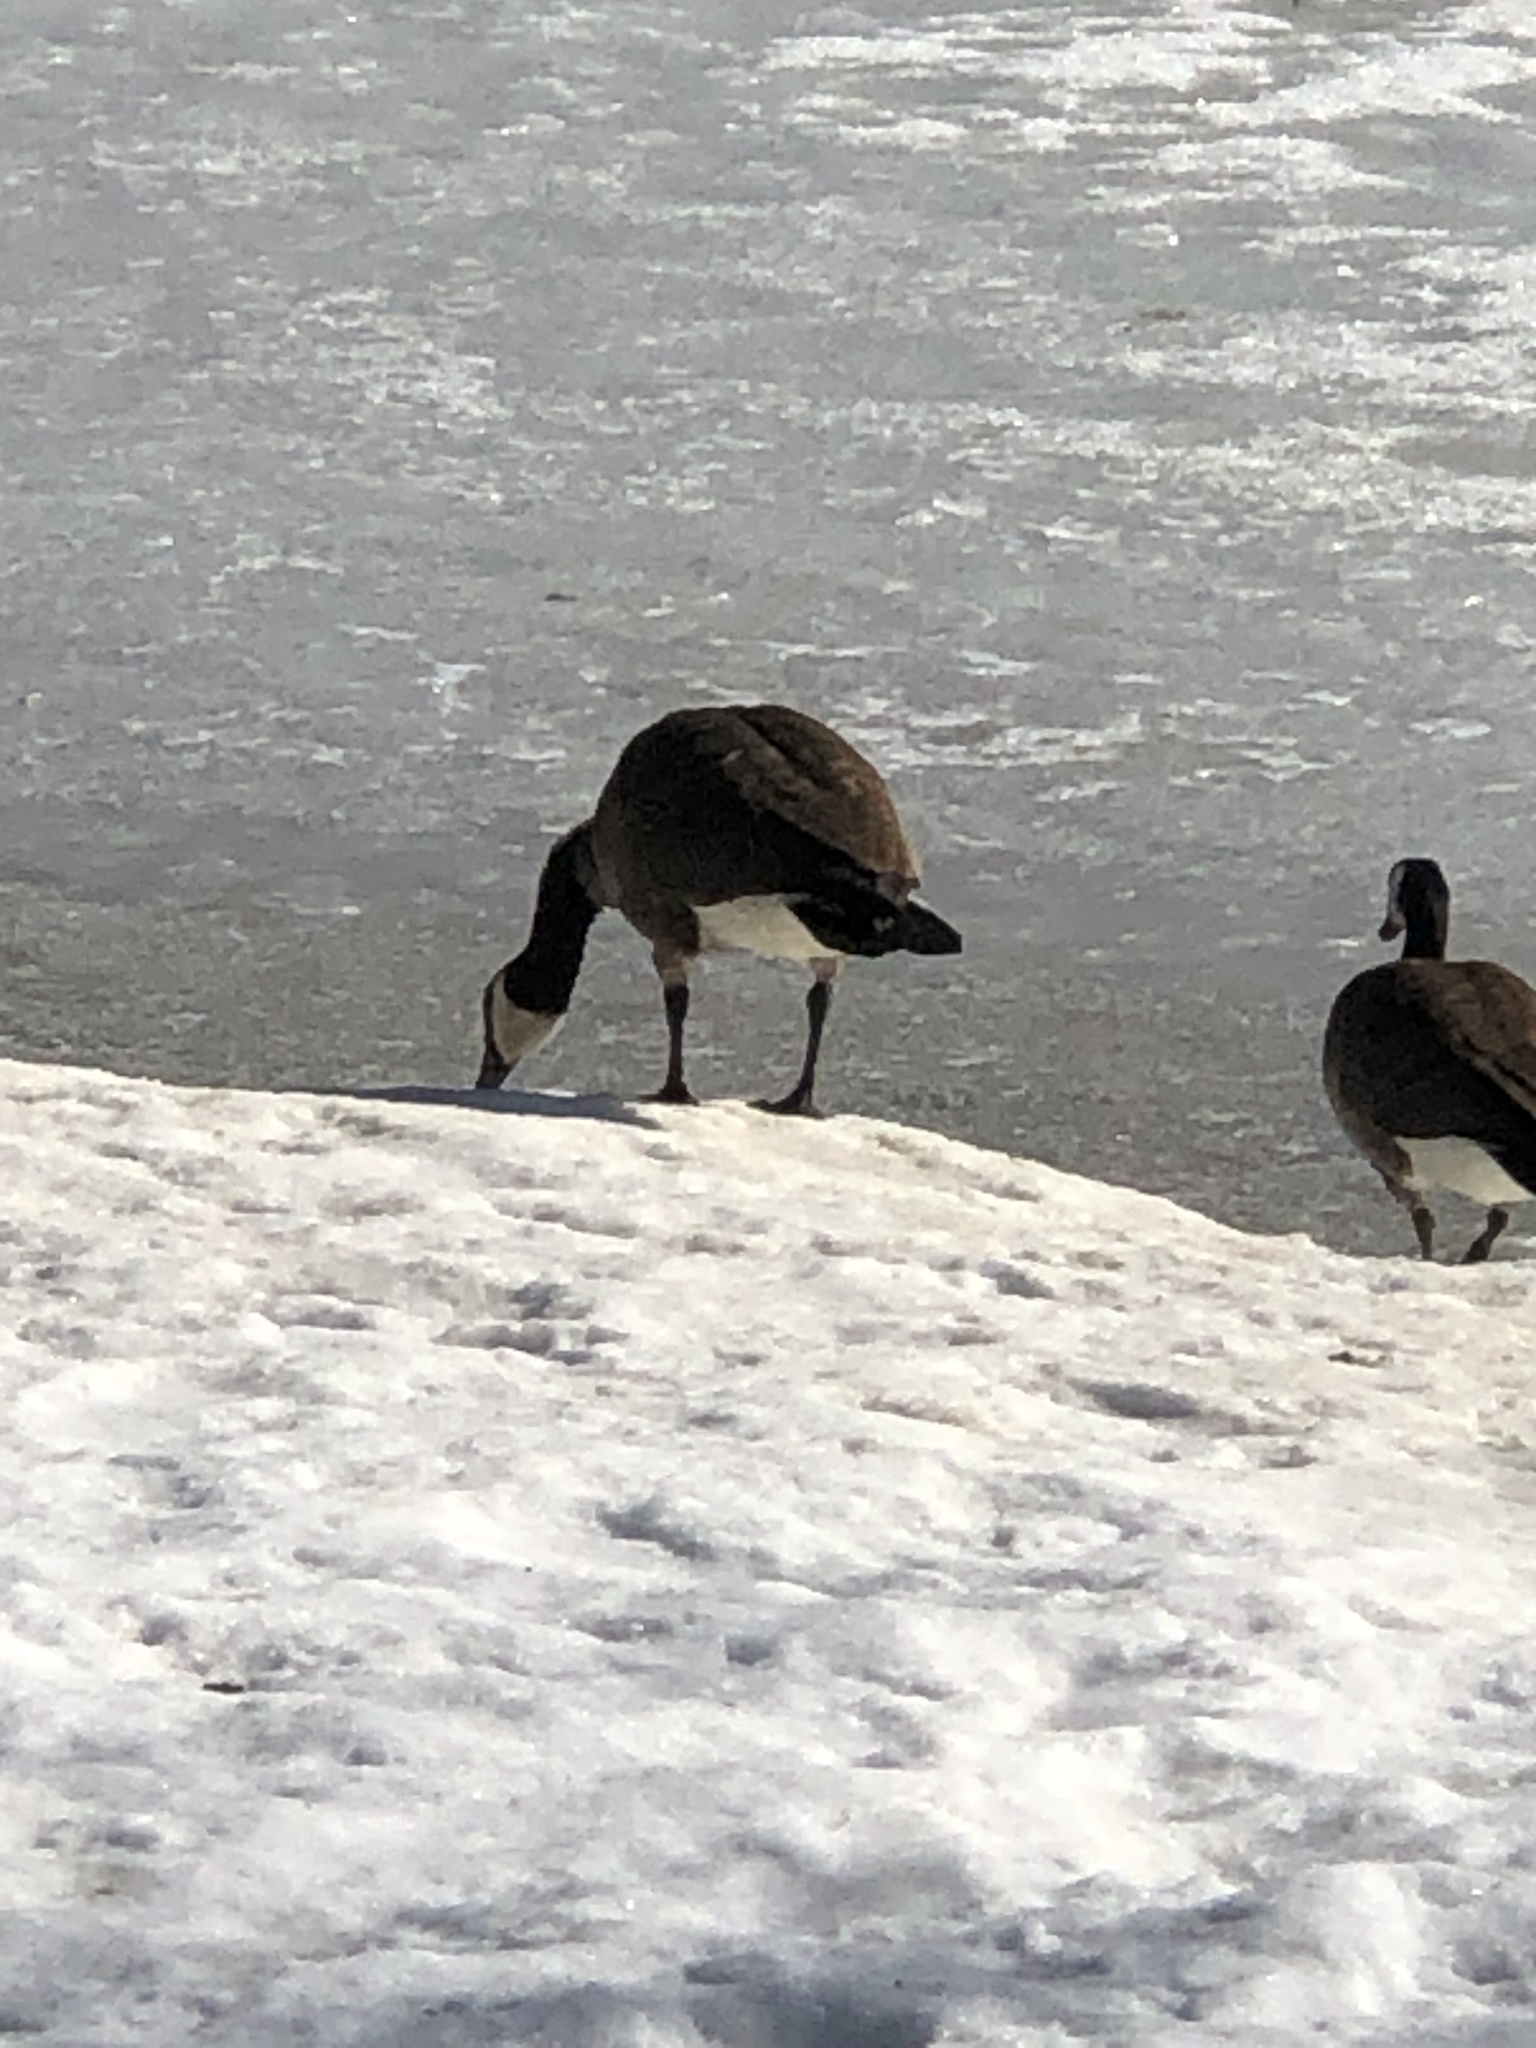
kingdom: Animalia
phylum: Chordata
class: Aves
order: Anseriformes
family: Anatidae
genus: Branta
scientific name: Branta canadensis
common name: Canada goose
